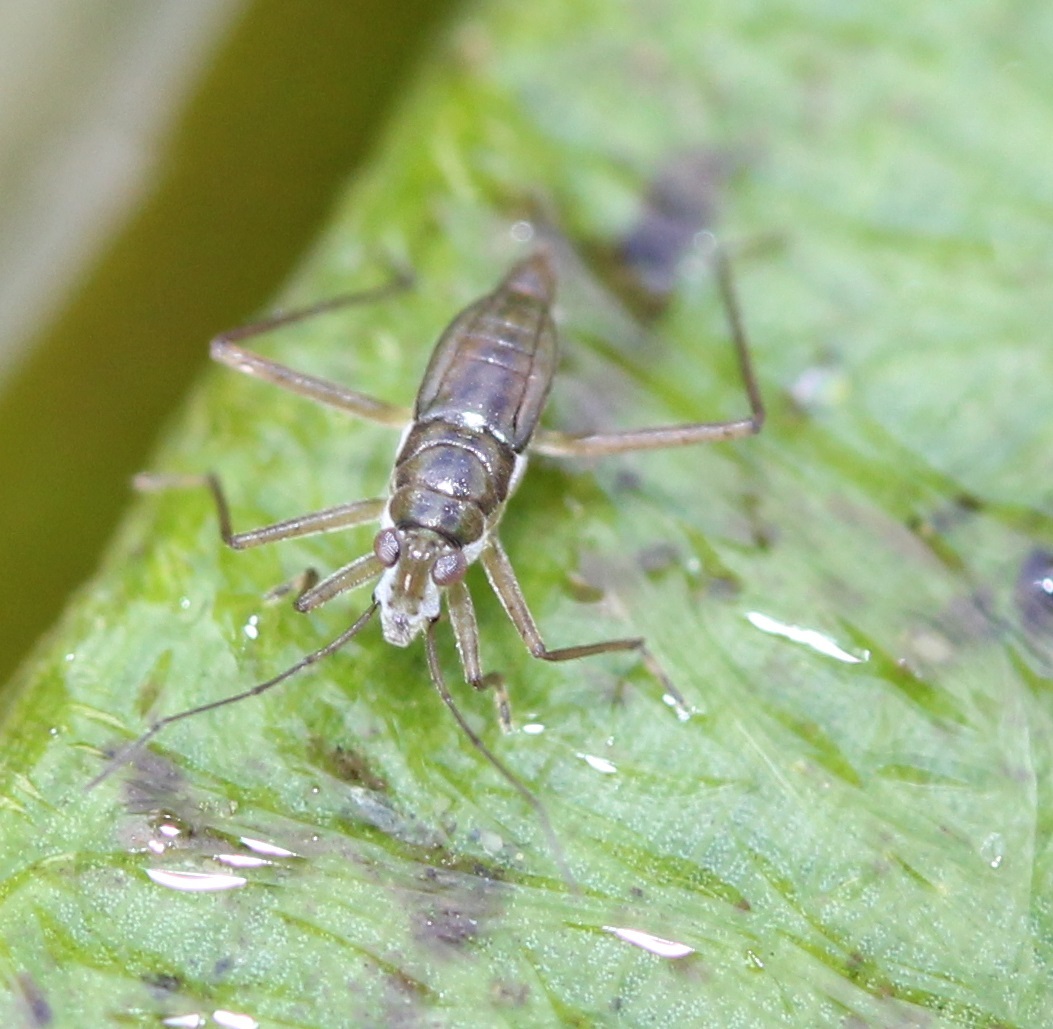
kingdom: Animalia
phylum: Arthropoda
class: Insecta
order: Hemiptera
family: Mesoveliidae
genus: Mesovelia
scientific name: Mesovelia
